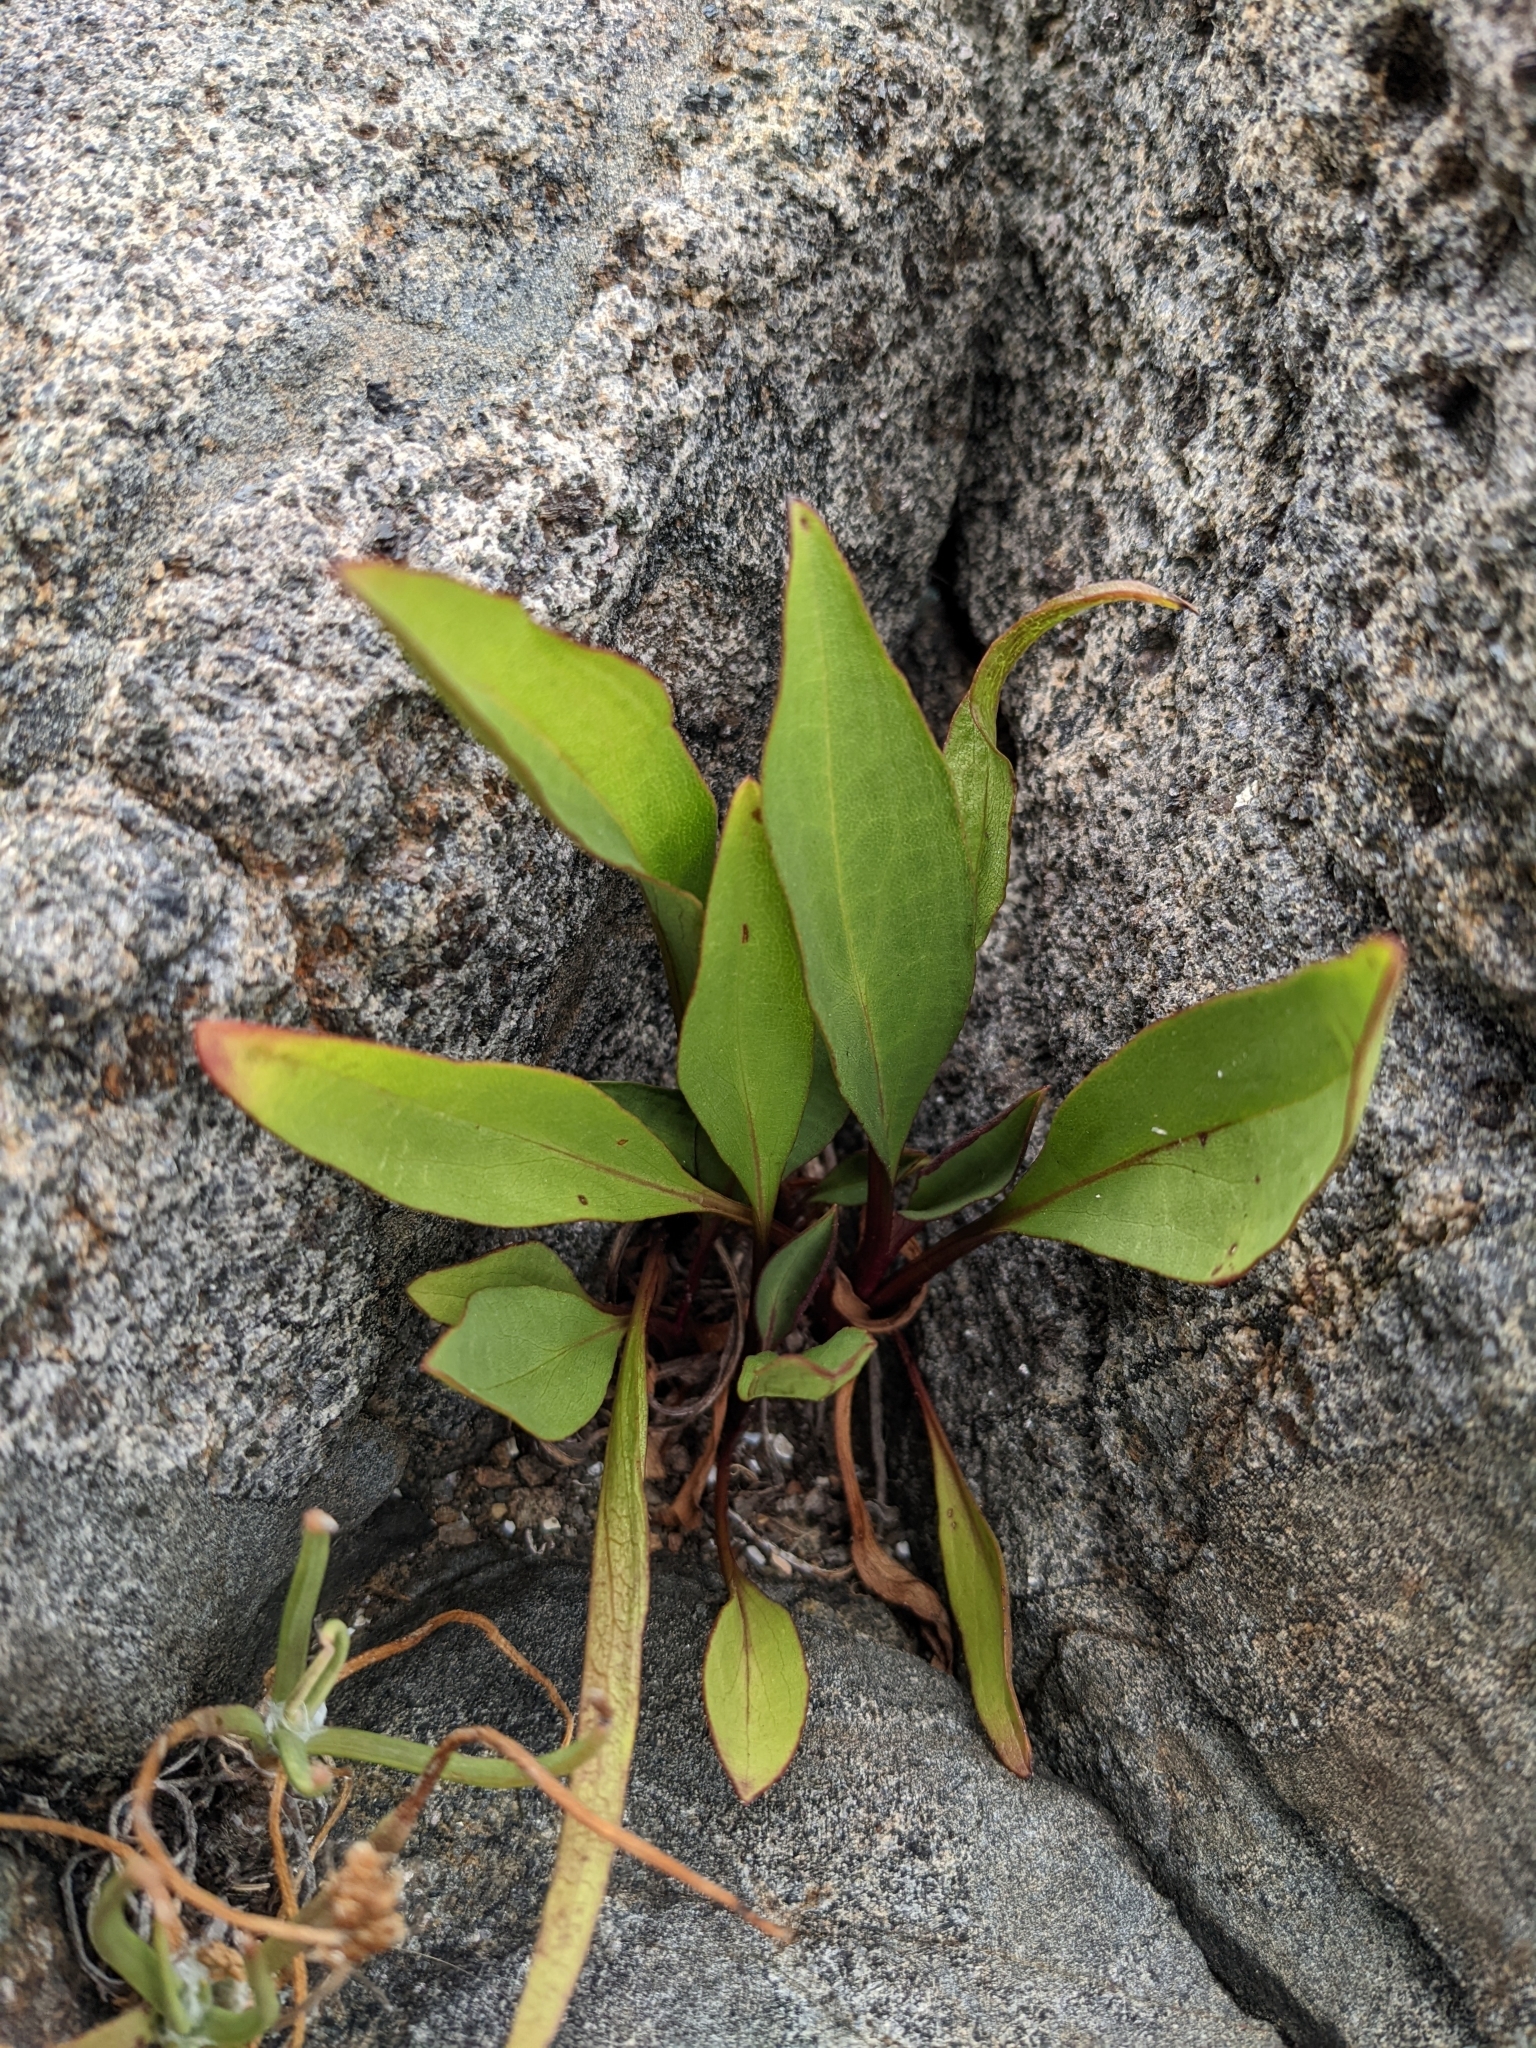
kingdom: Plantae
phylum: Tracheophyta
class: Magnoliopsida
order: Asterales
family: Asteraceae
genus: Solidago
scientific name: Solidago sempervirens
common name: Salt-marsh goldenrod
